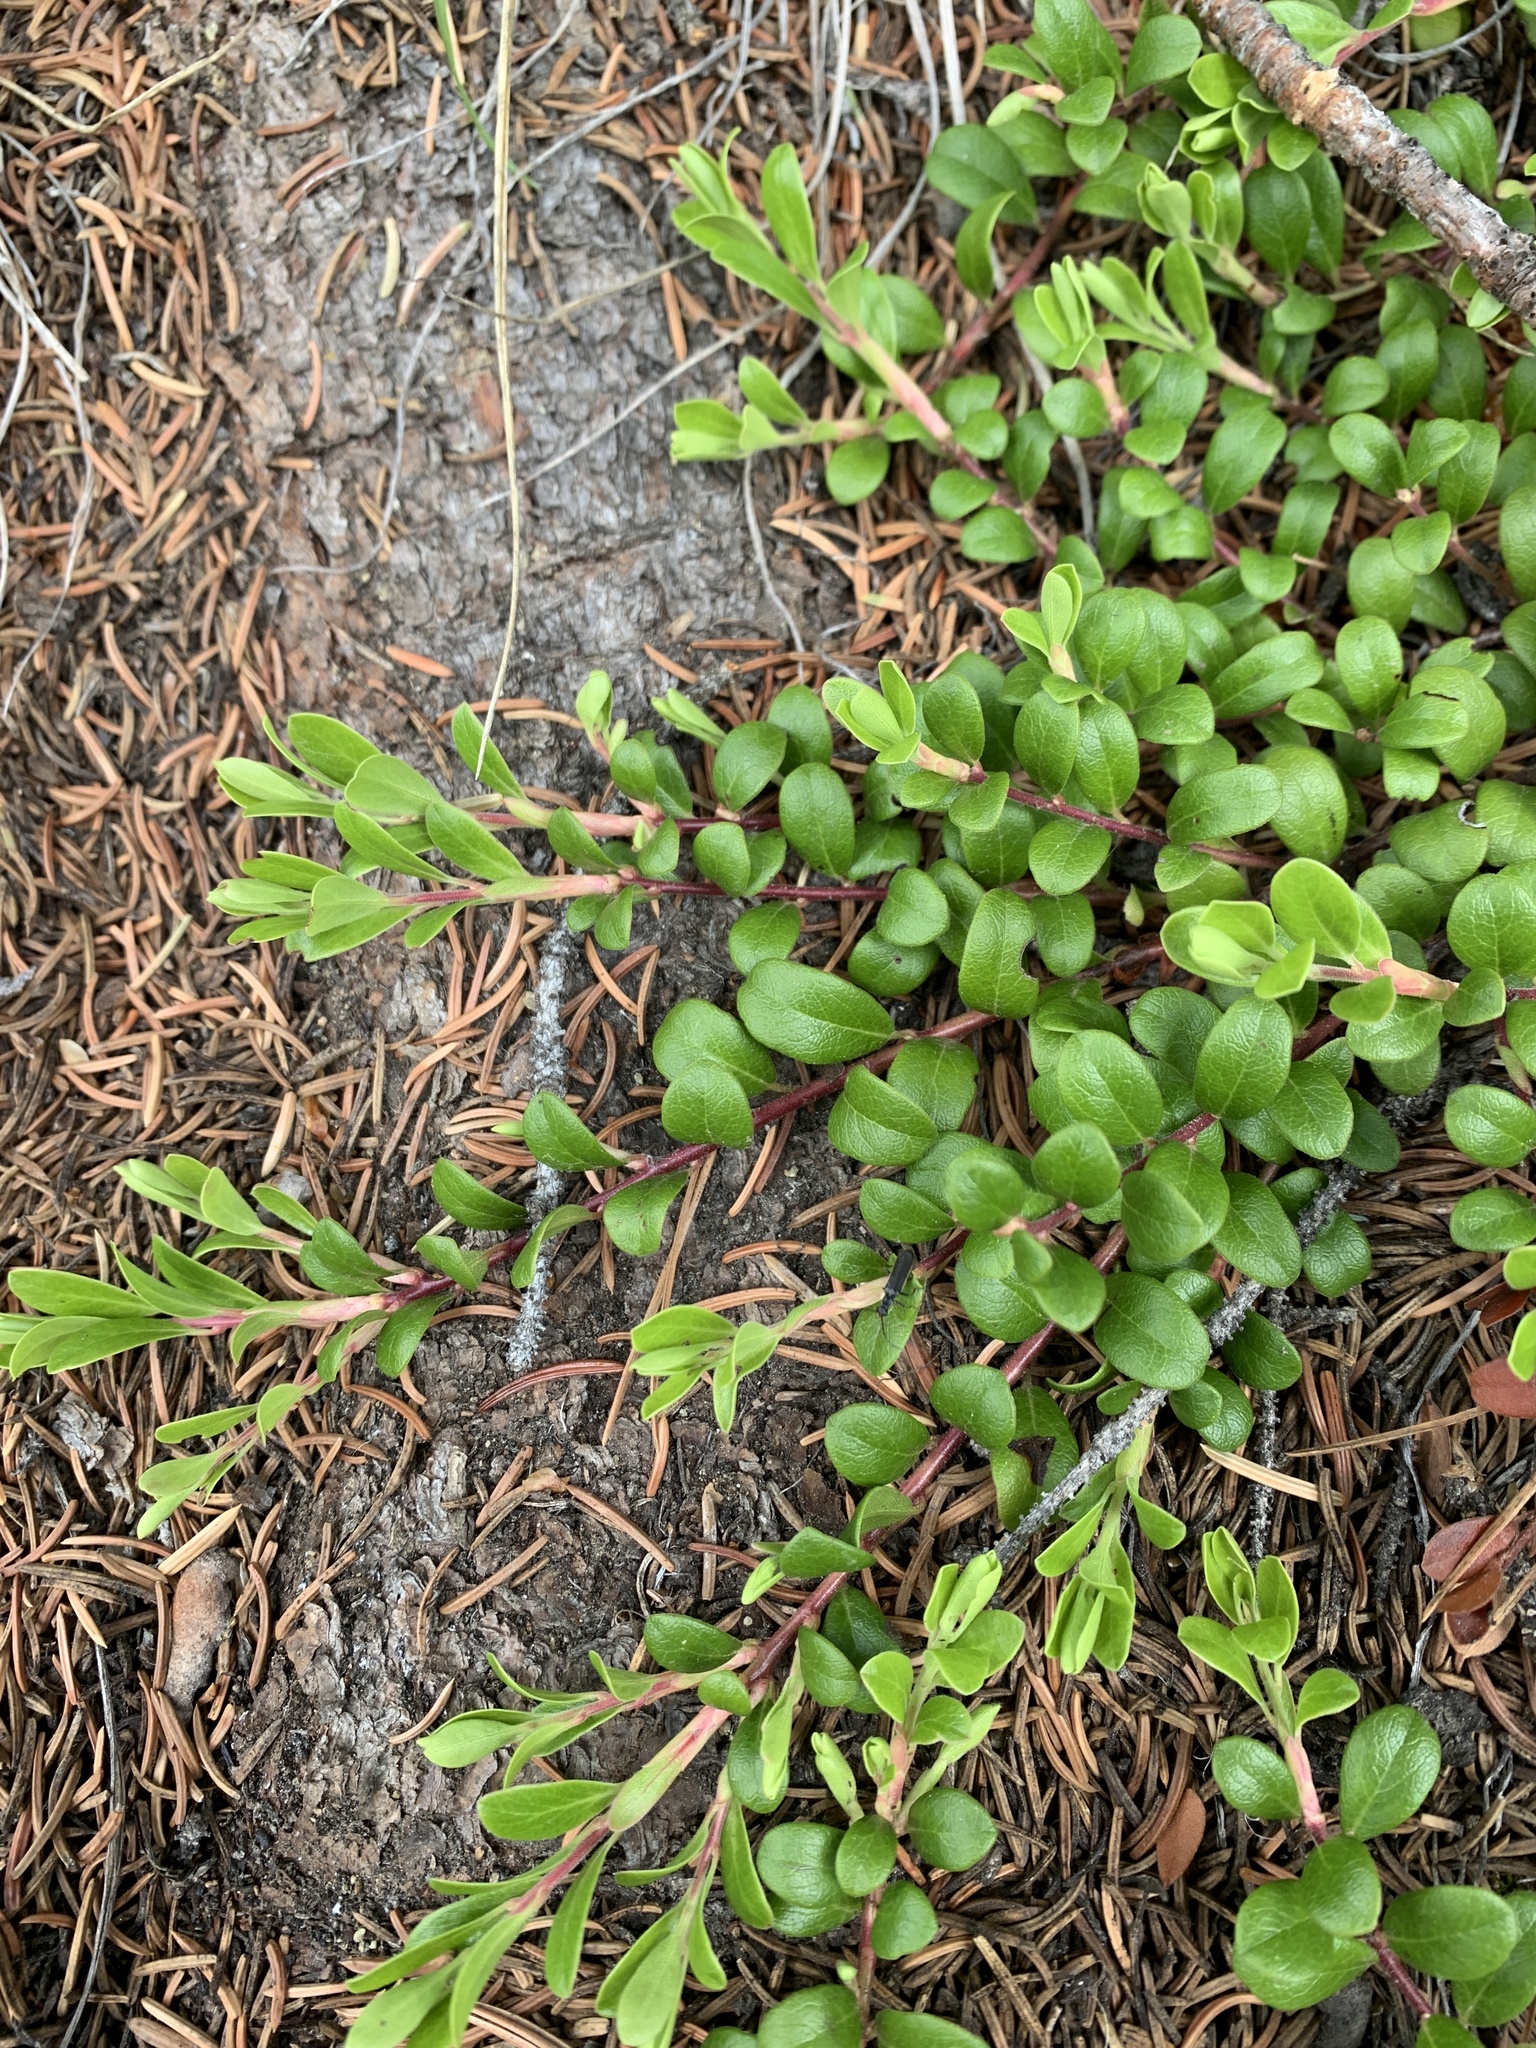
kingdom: Plantae
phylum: Tracheophyta
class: Magnoliopsida
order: Ericales
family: Ericaceae
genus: Arctostaphylos
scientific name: Arctostaphylos uva-ursi
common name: Bearberry
